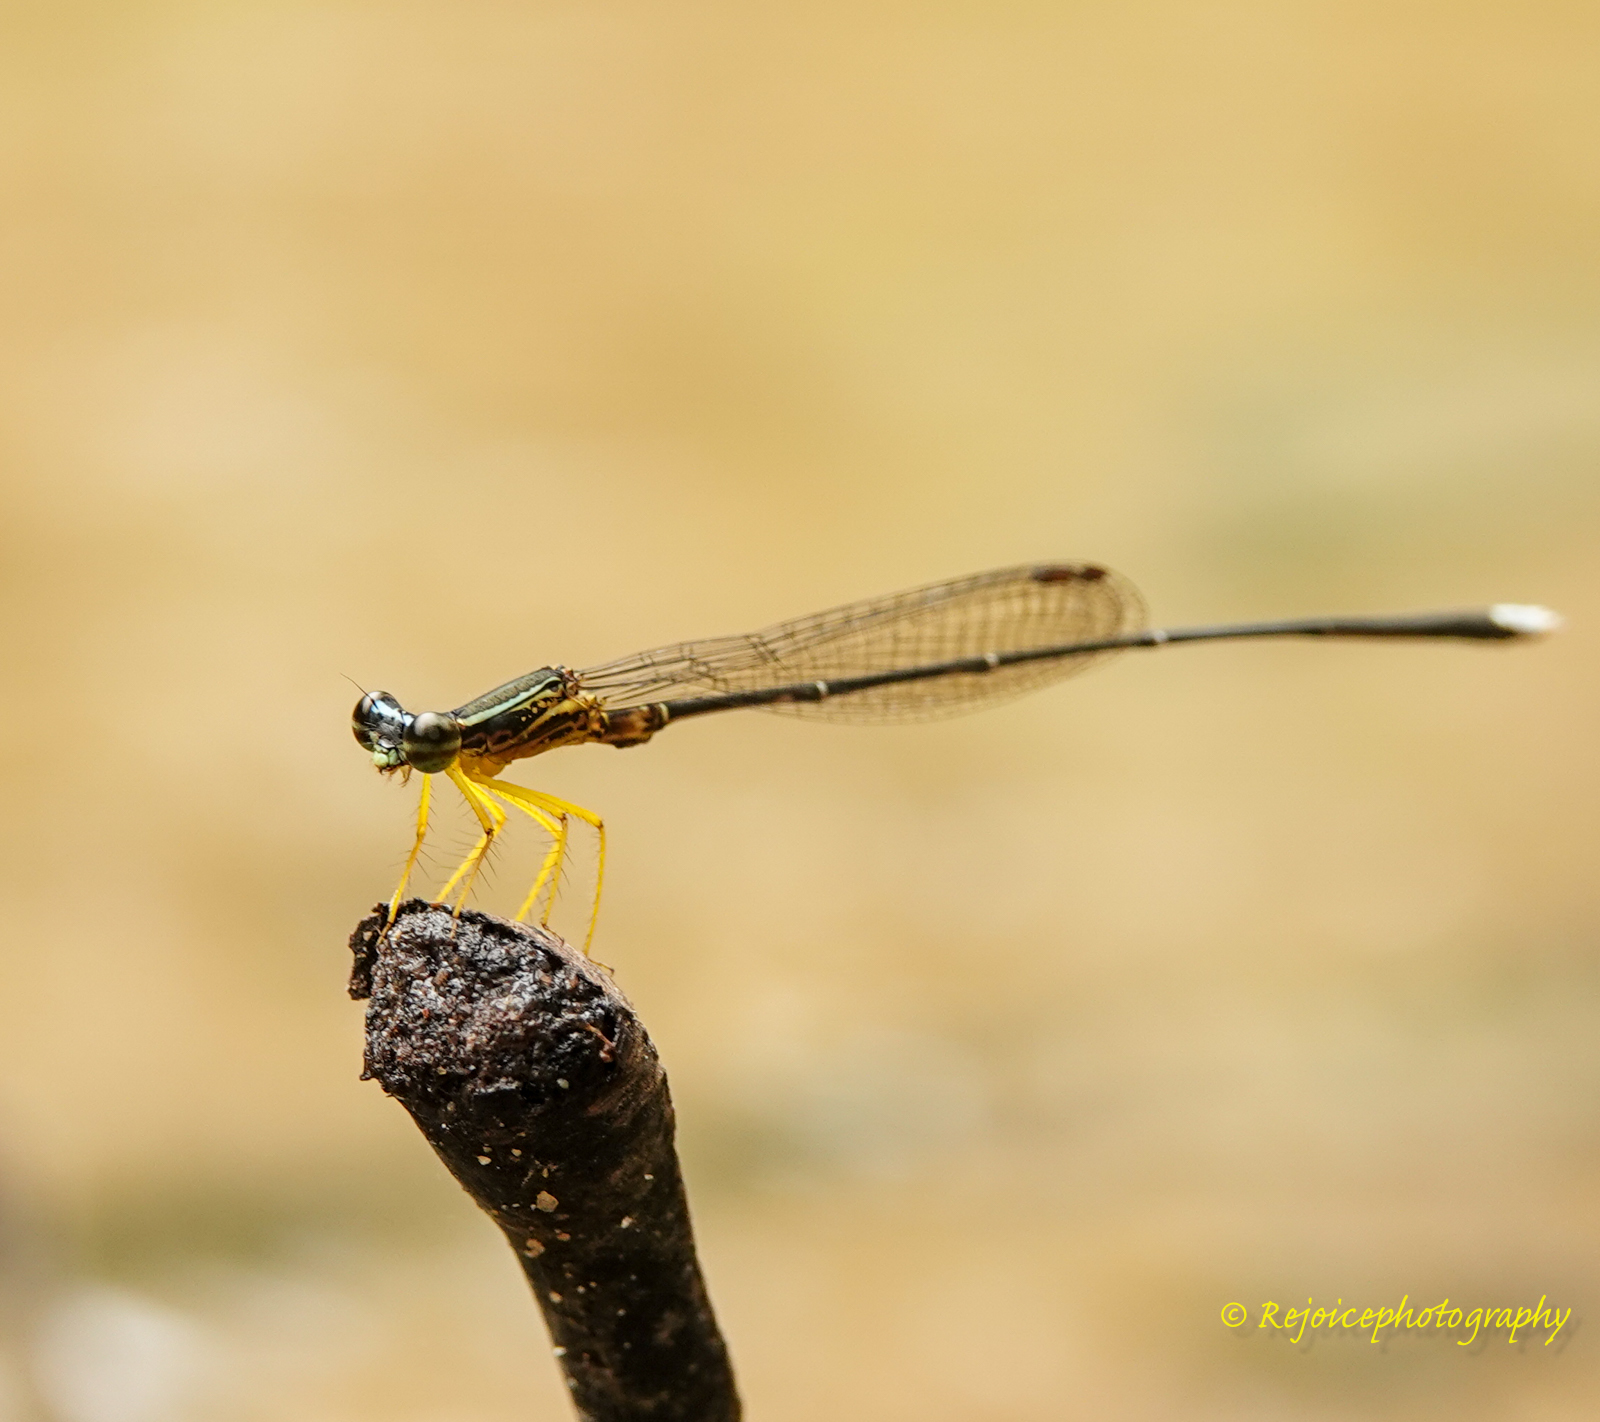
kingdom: Animalia
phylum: Arthropoda
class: Insecta
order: Odonata
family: Platycnemididae
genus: Copera
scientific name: Copera vittata
